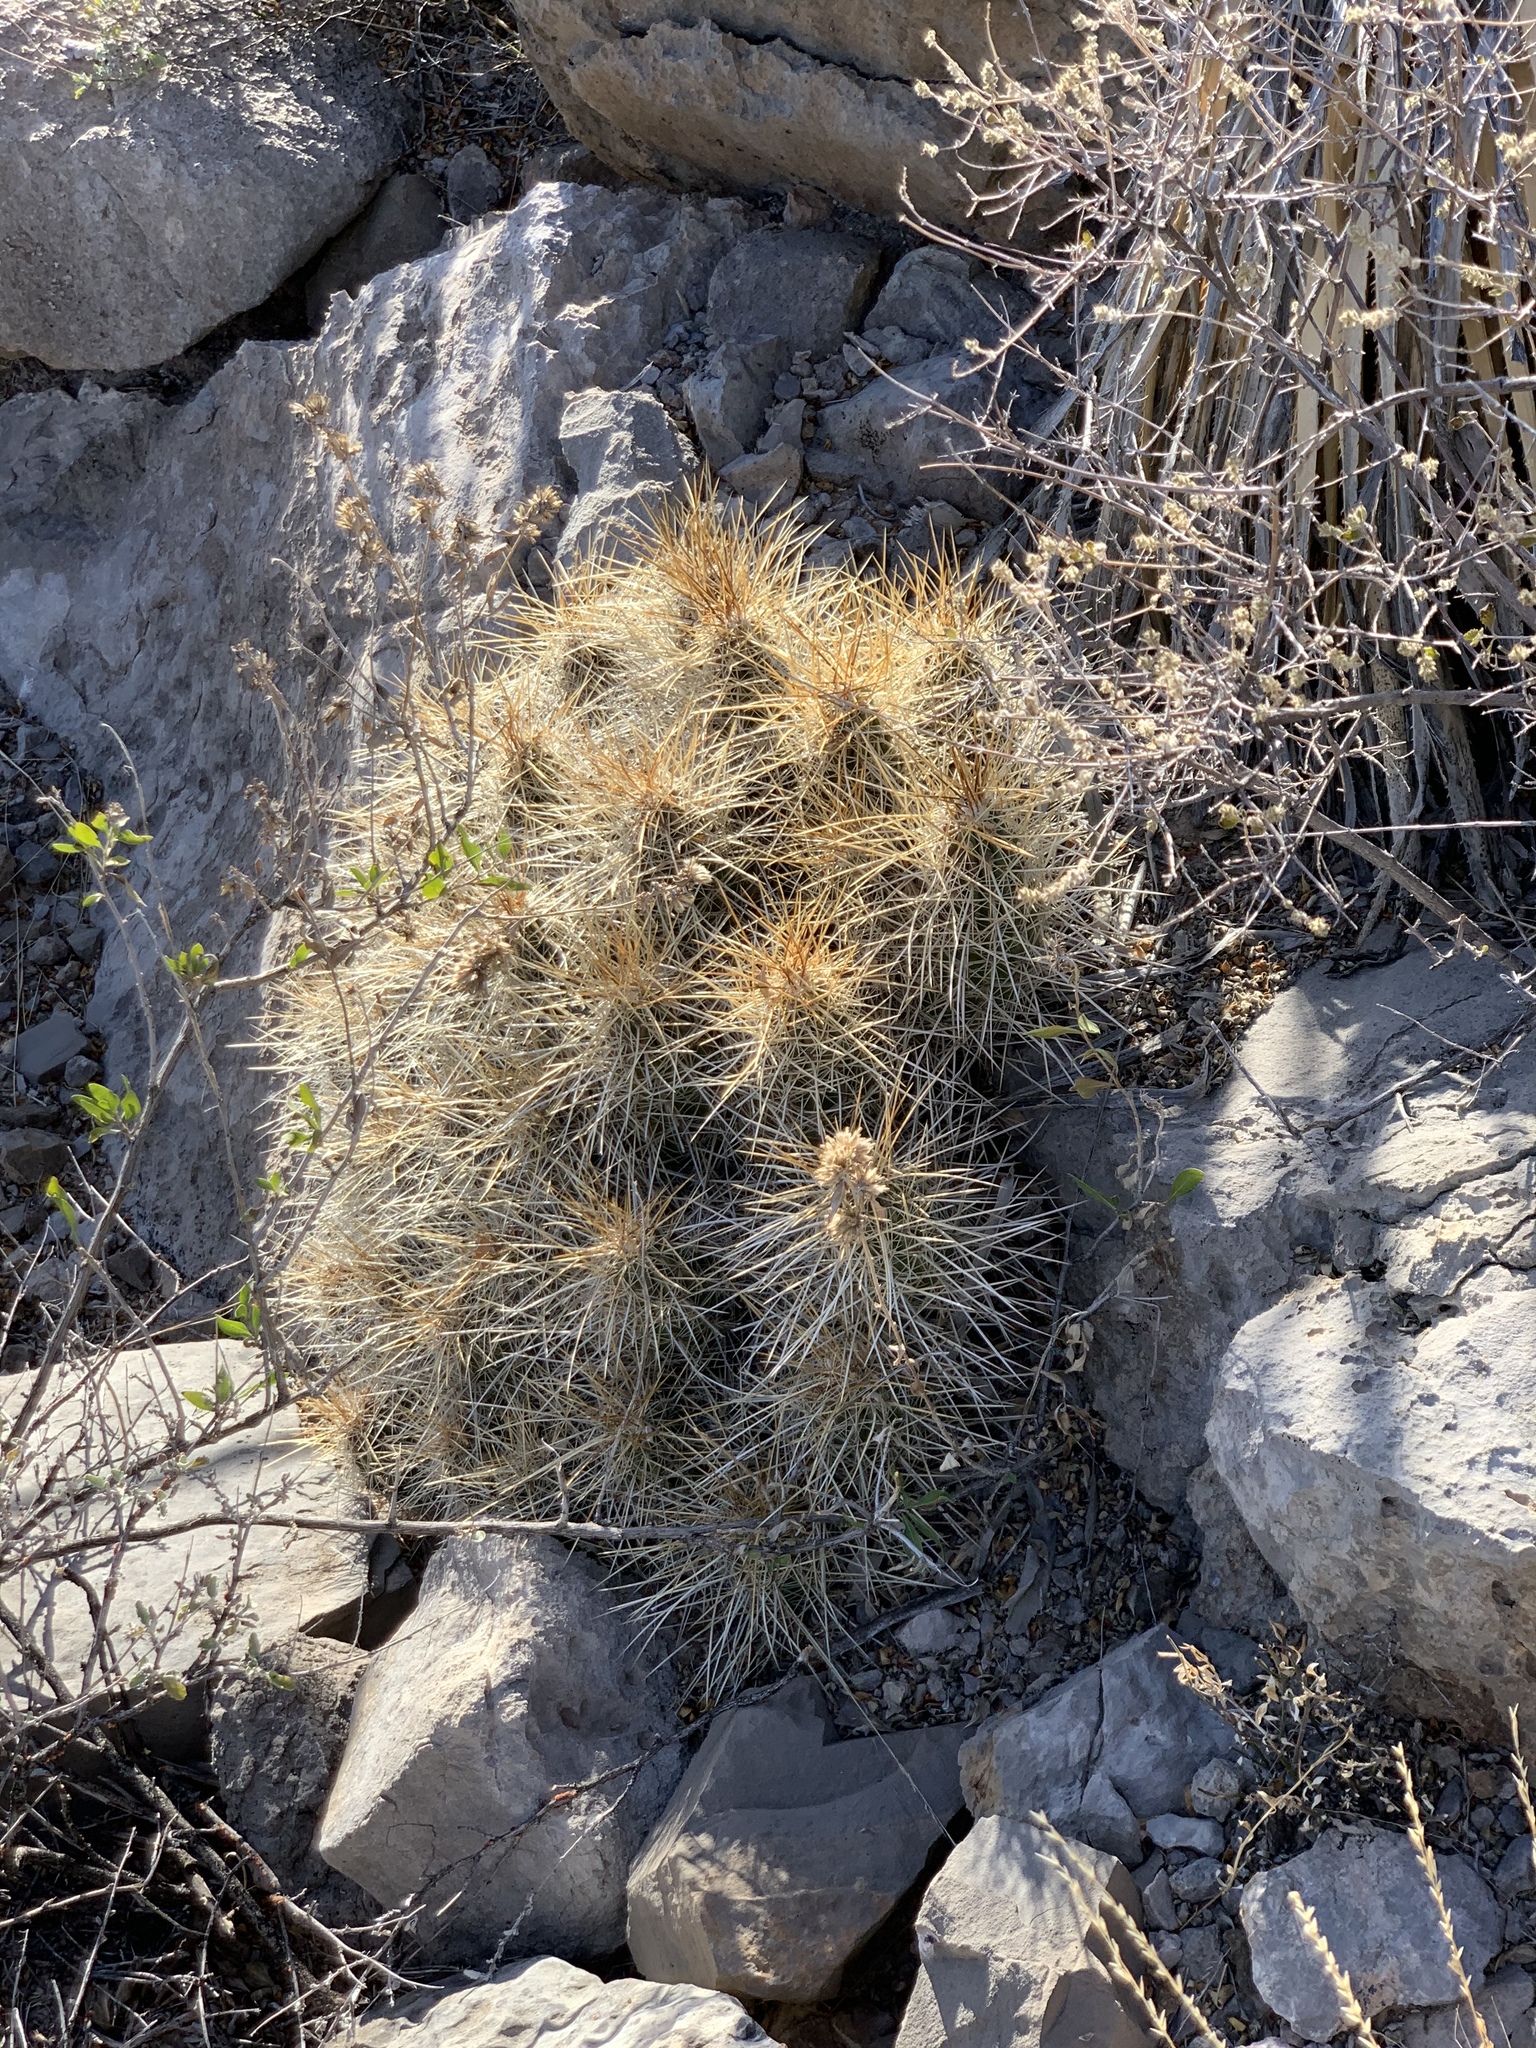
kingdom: Plantae
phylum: Tracheophyta
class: Magnoliopsida
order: Caryophyllales
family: Cactaceae
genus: Echinocereus
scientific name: Echinocereus stramineus
